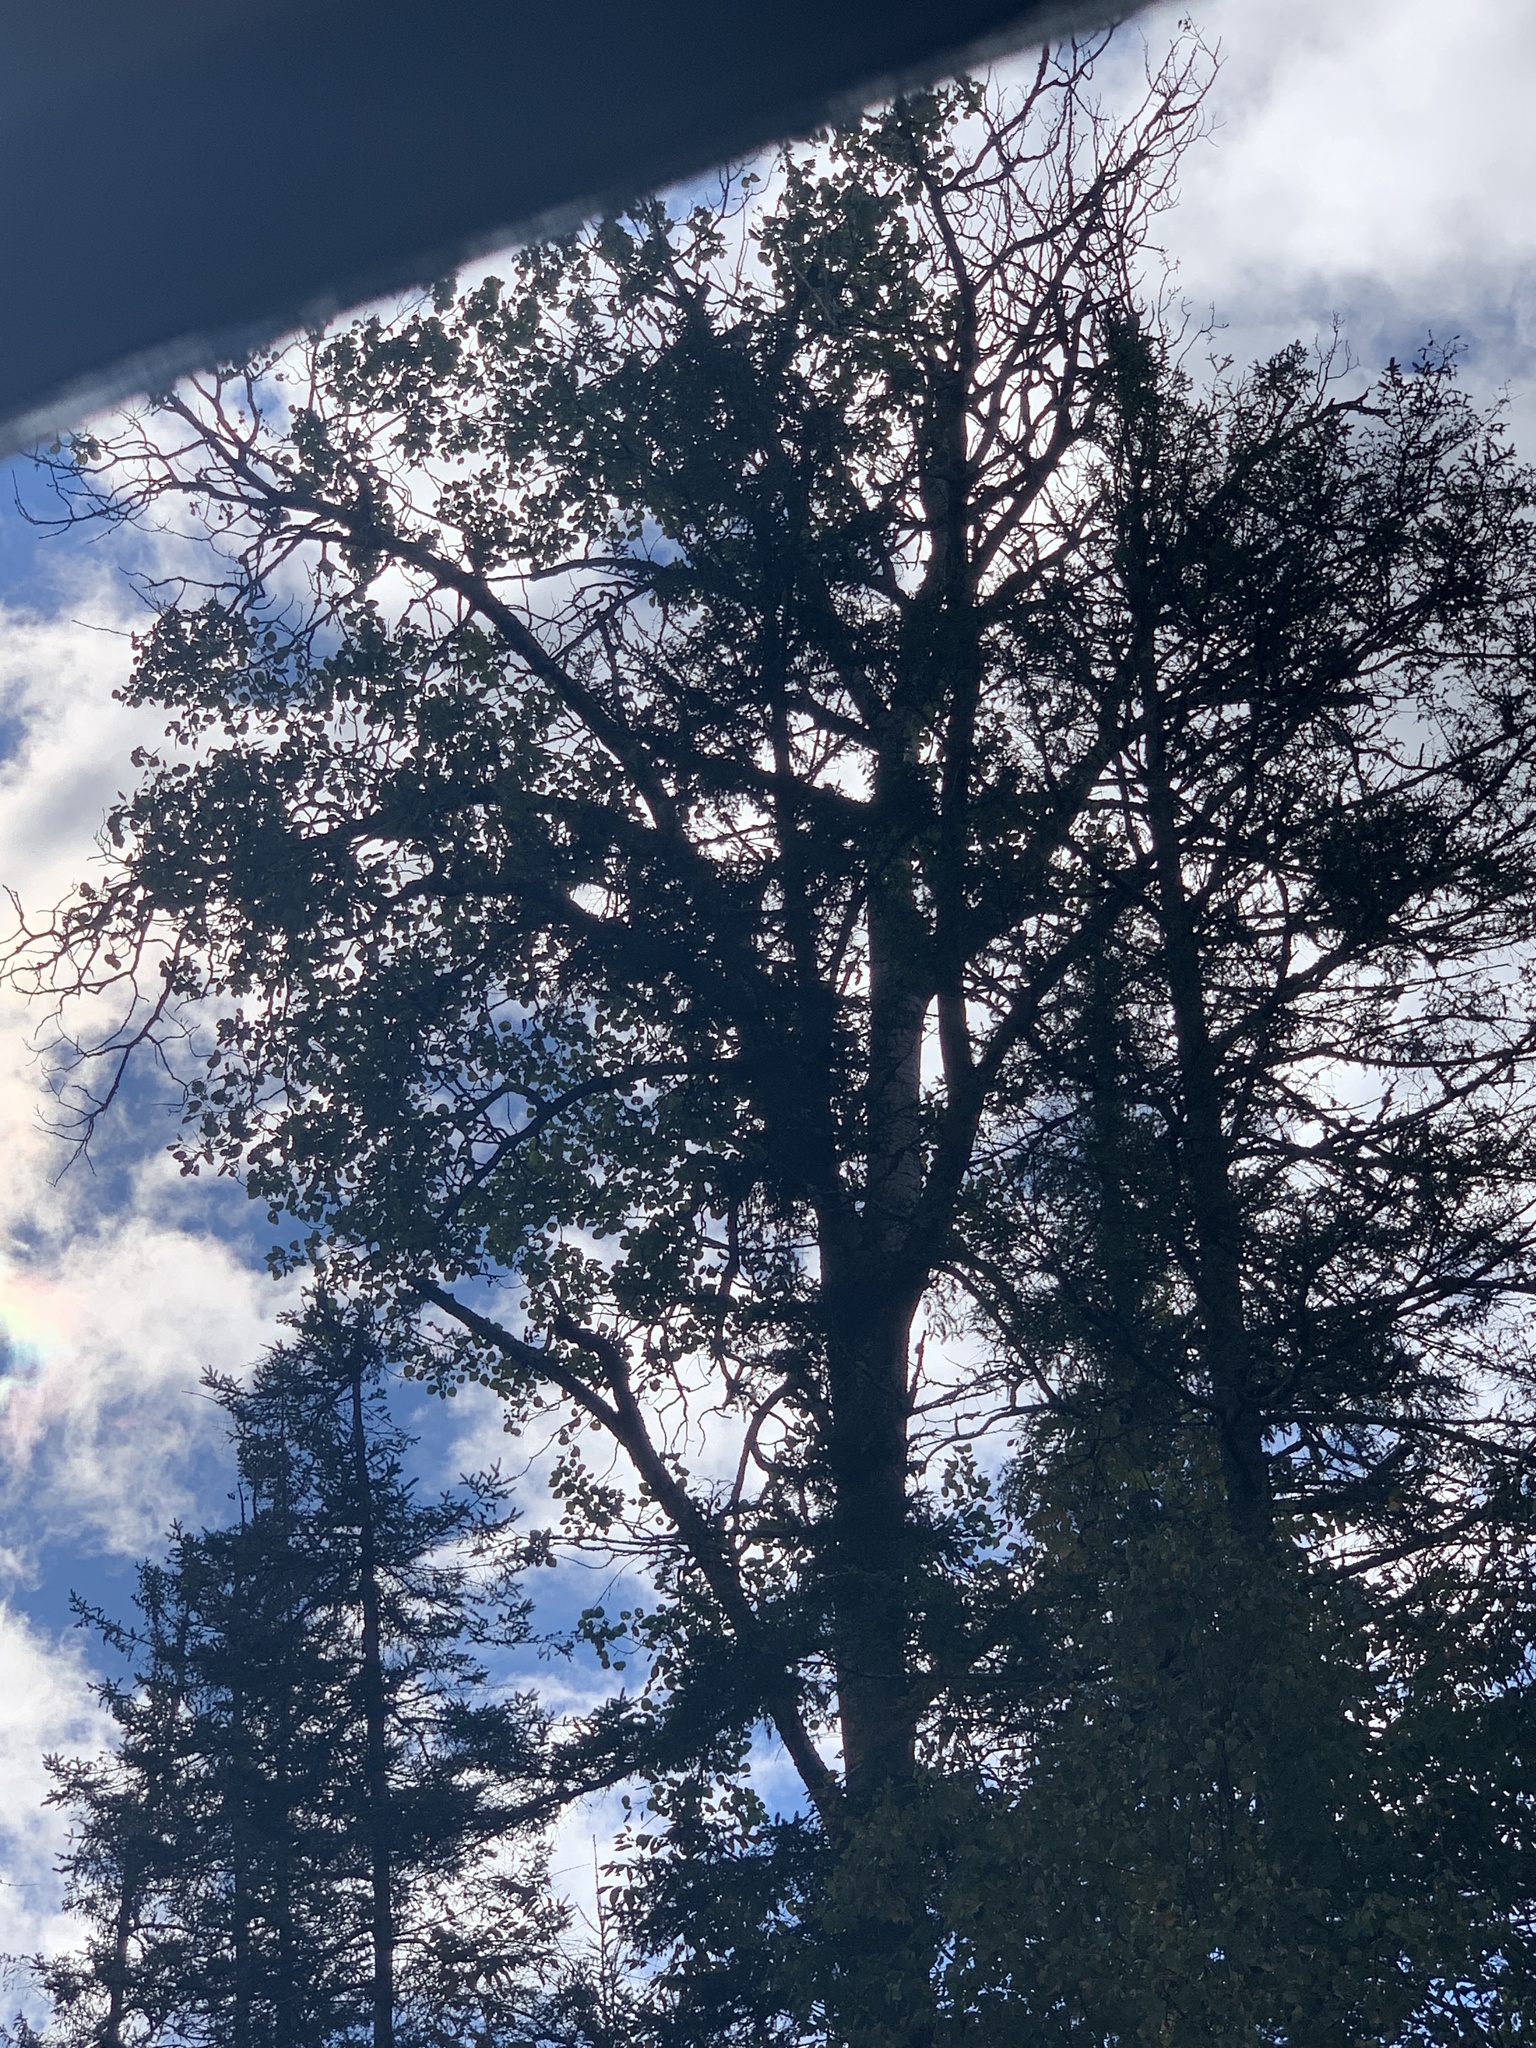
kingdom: Plantae
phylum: Tracheophyta
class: Magnoliopsida
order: Malpighiales
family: Salicaceae
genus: Populus
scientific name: Populus tremuloides
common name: Quaking aspen
